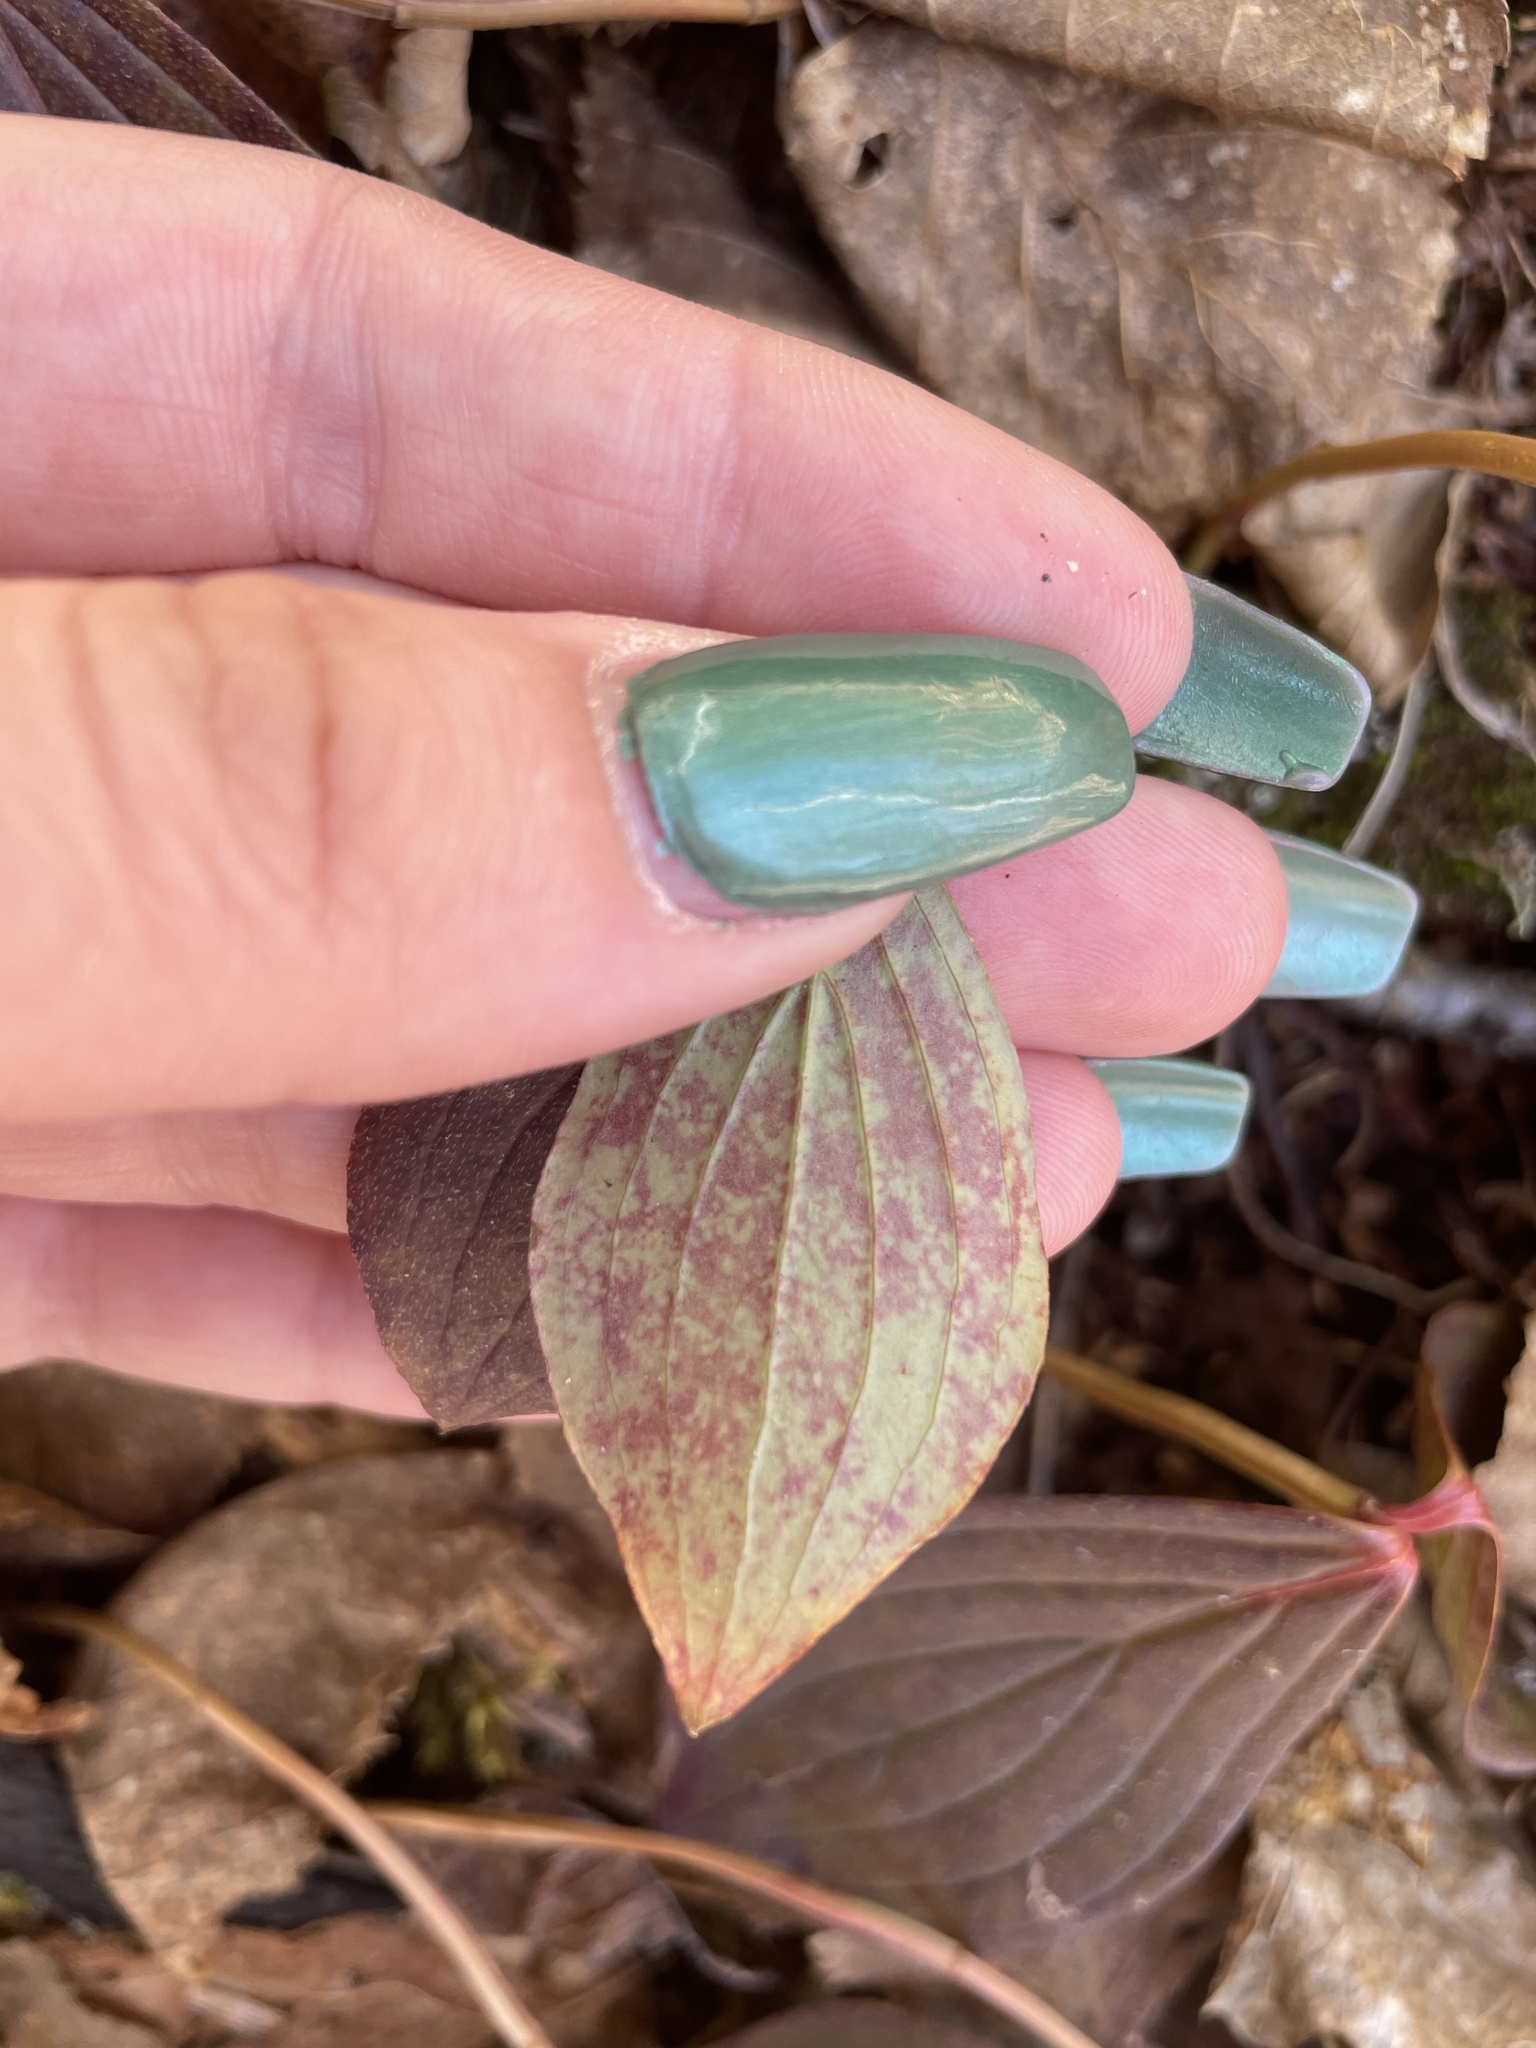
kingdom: Plantae
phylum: Tracheophyta
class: Magnoliopsida
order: Cornales
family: Cornaceae
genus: Cornus
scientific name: Cornus canadensis
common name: Creeping dogwood
